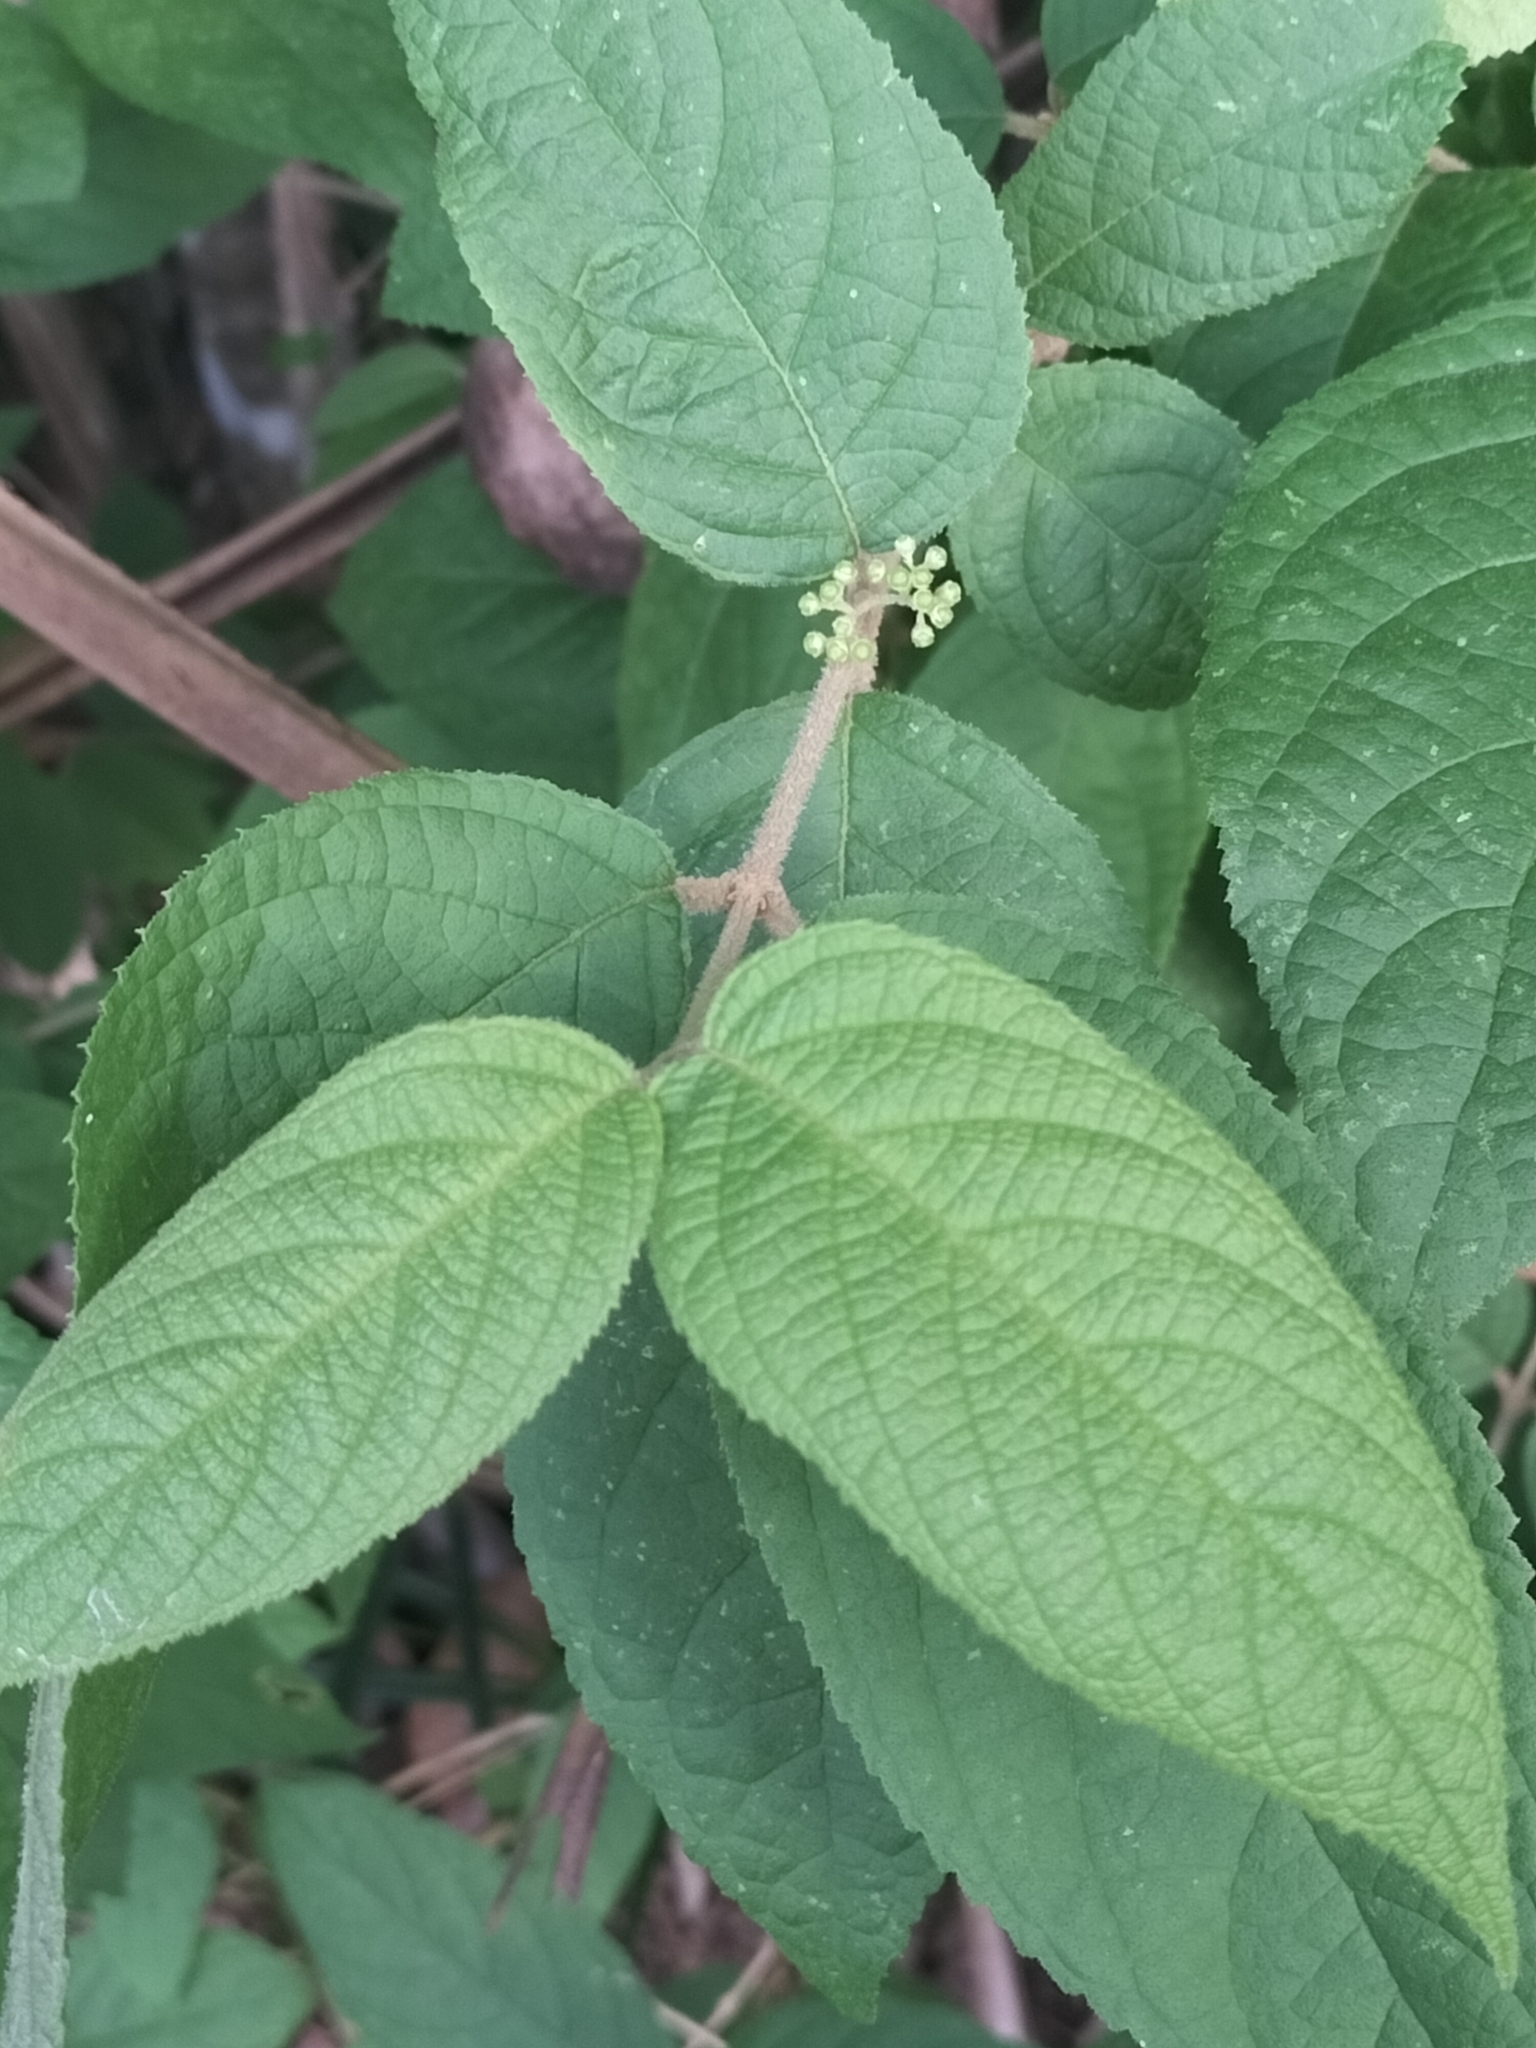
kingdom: Plantae
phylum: Tracheophyta
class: Magnoliopsida
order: Lamiales
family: Lamiaceae
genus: Callicarpa
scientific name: Callicarpa pedunculata
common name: Velvetleaf
